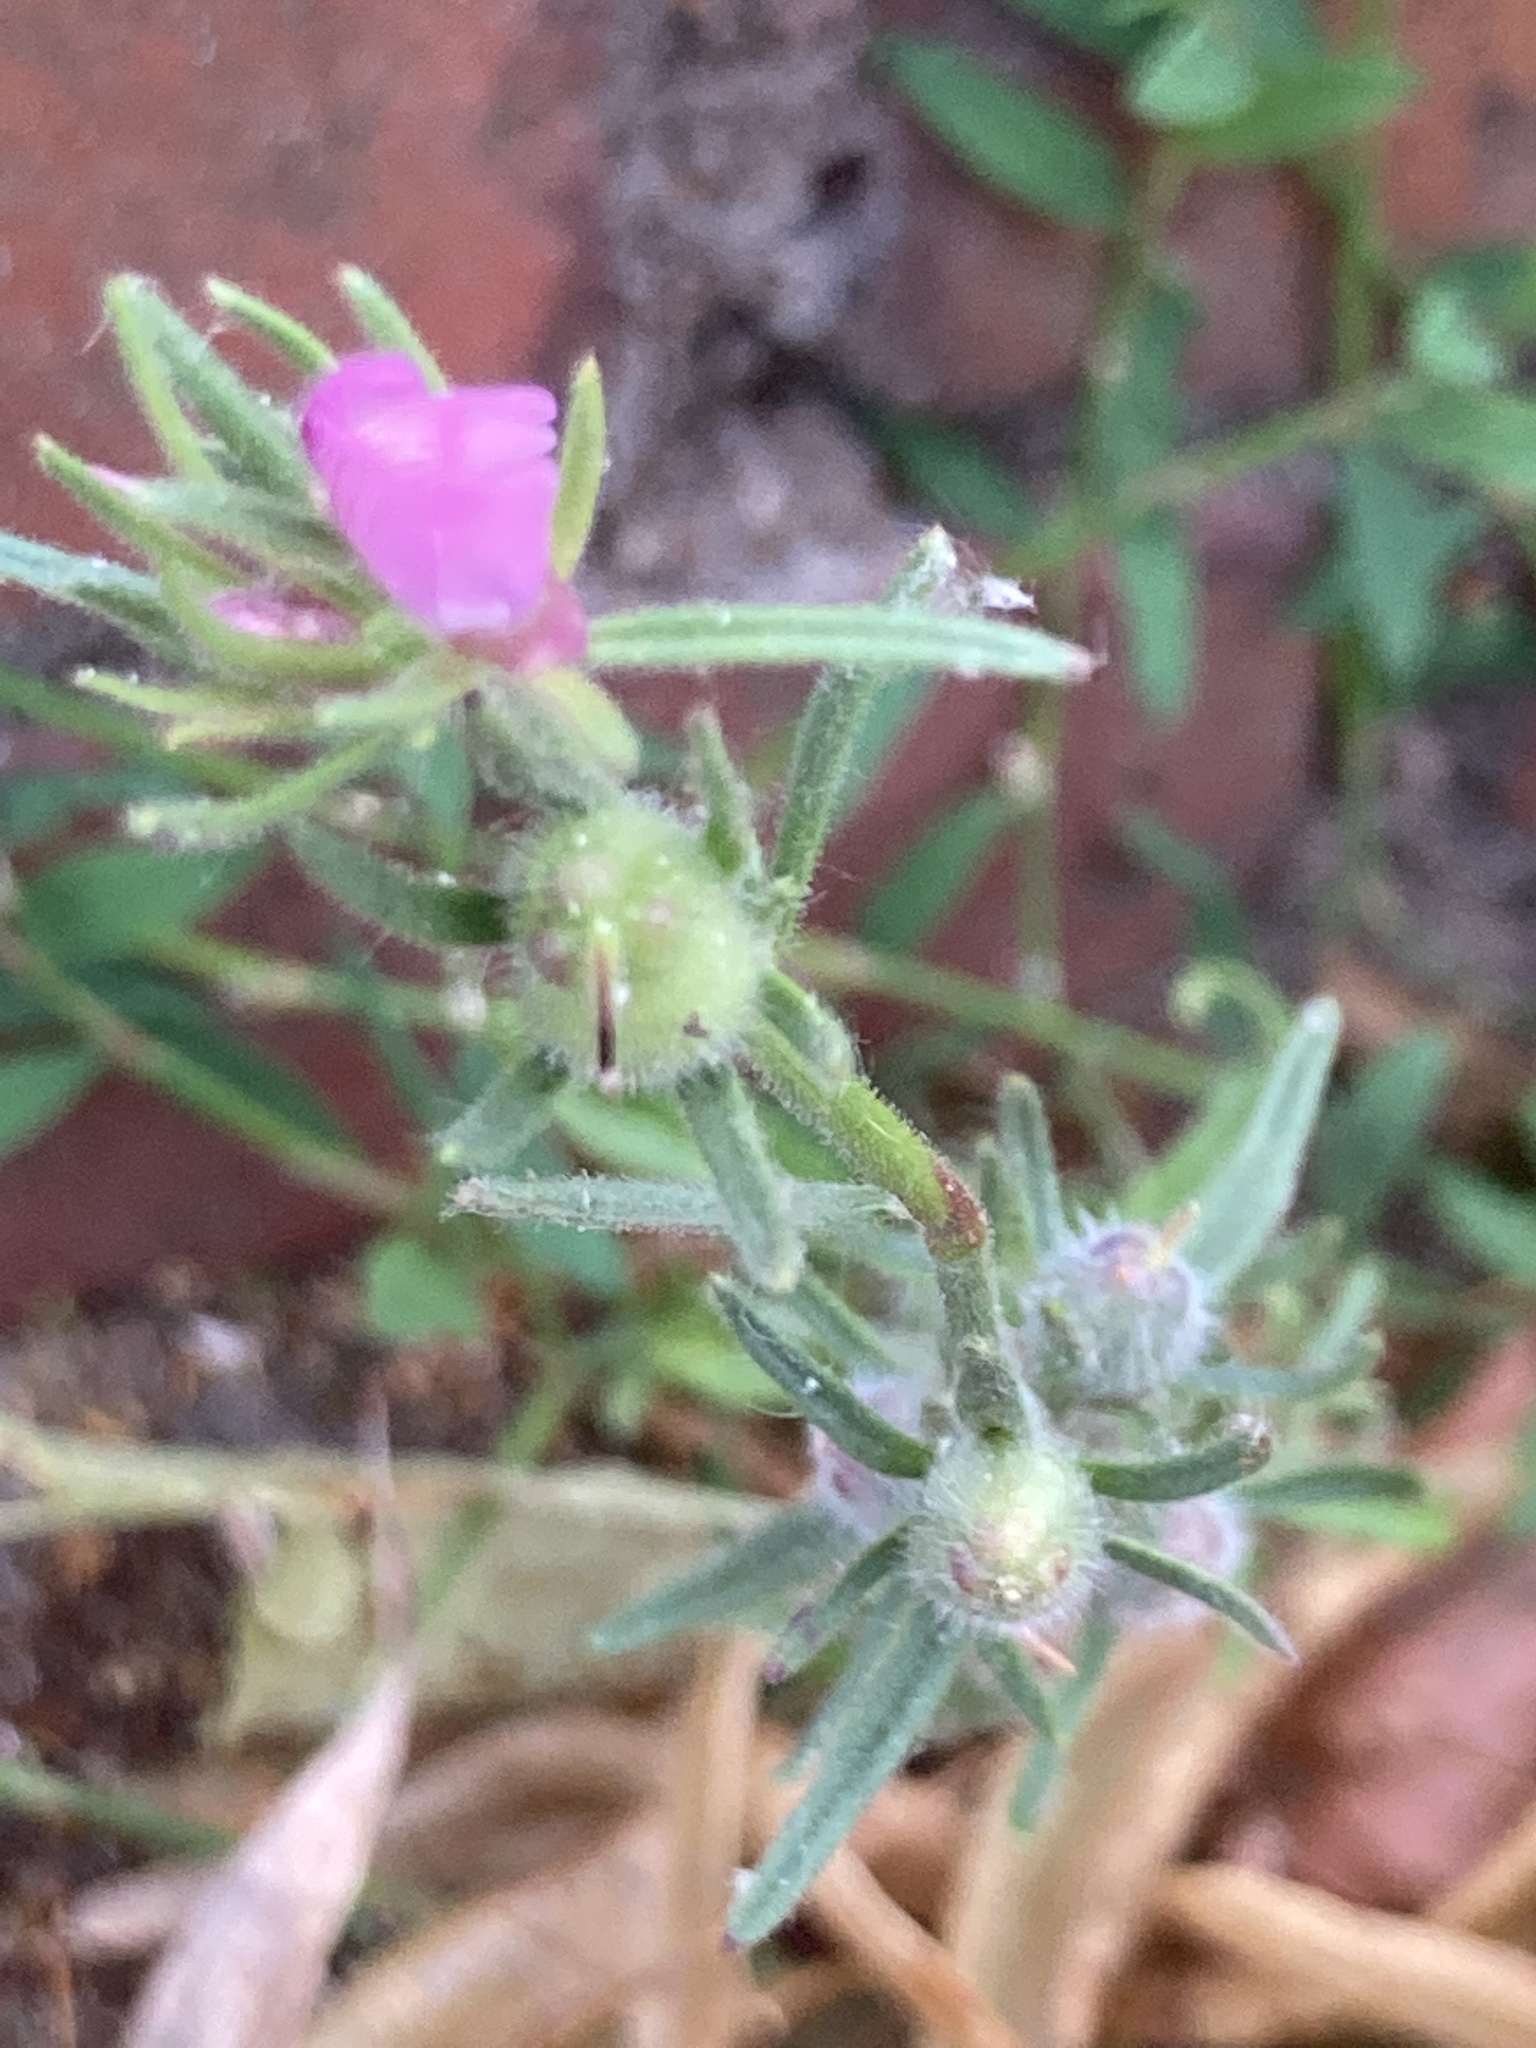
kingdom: Plantae
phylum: Tracheophyta
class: Magnoliopsida
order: Lamiales
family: Plantaginaceae
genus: Misopates
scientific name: Misopates orontium
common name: Weasel's-snout
